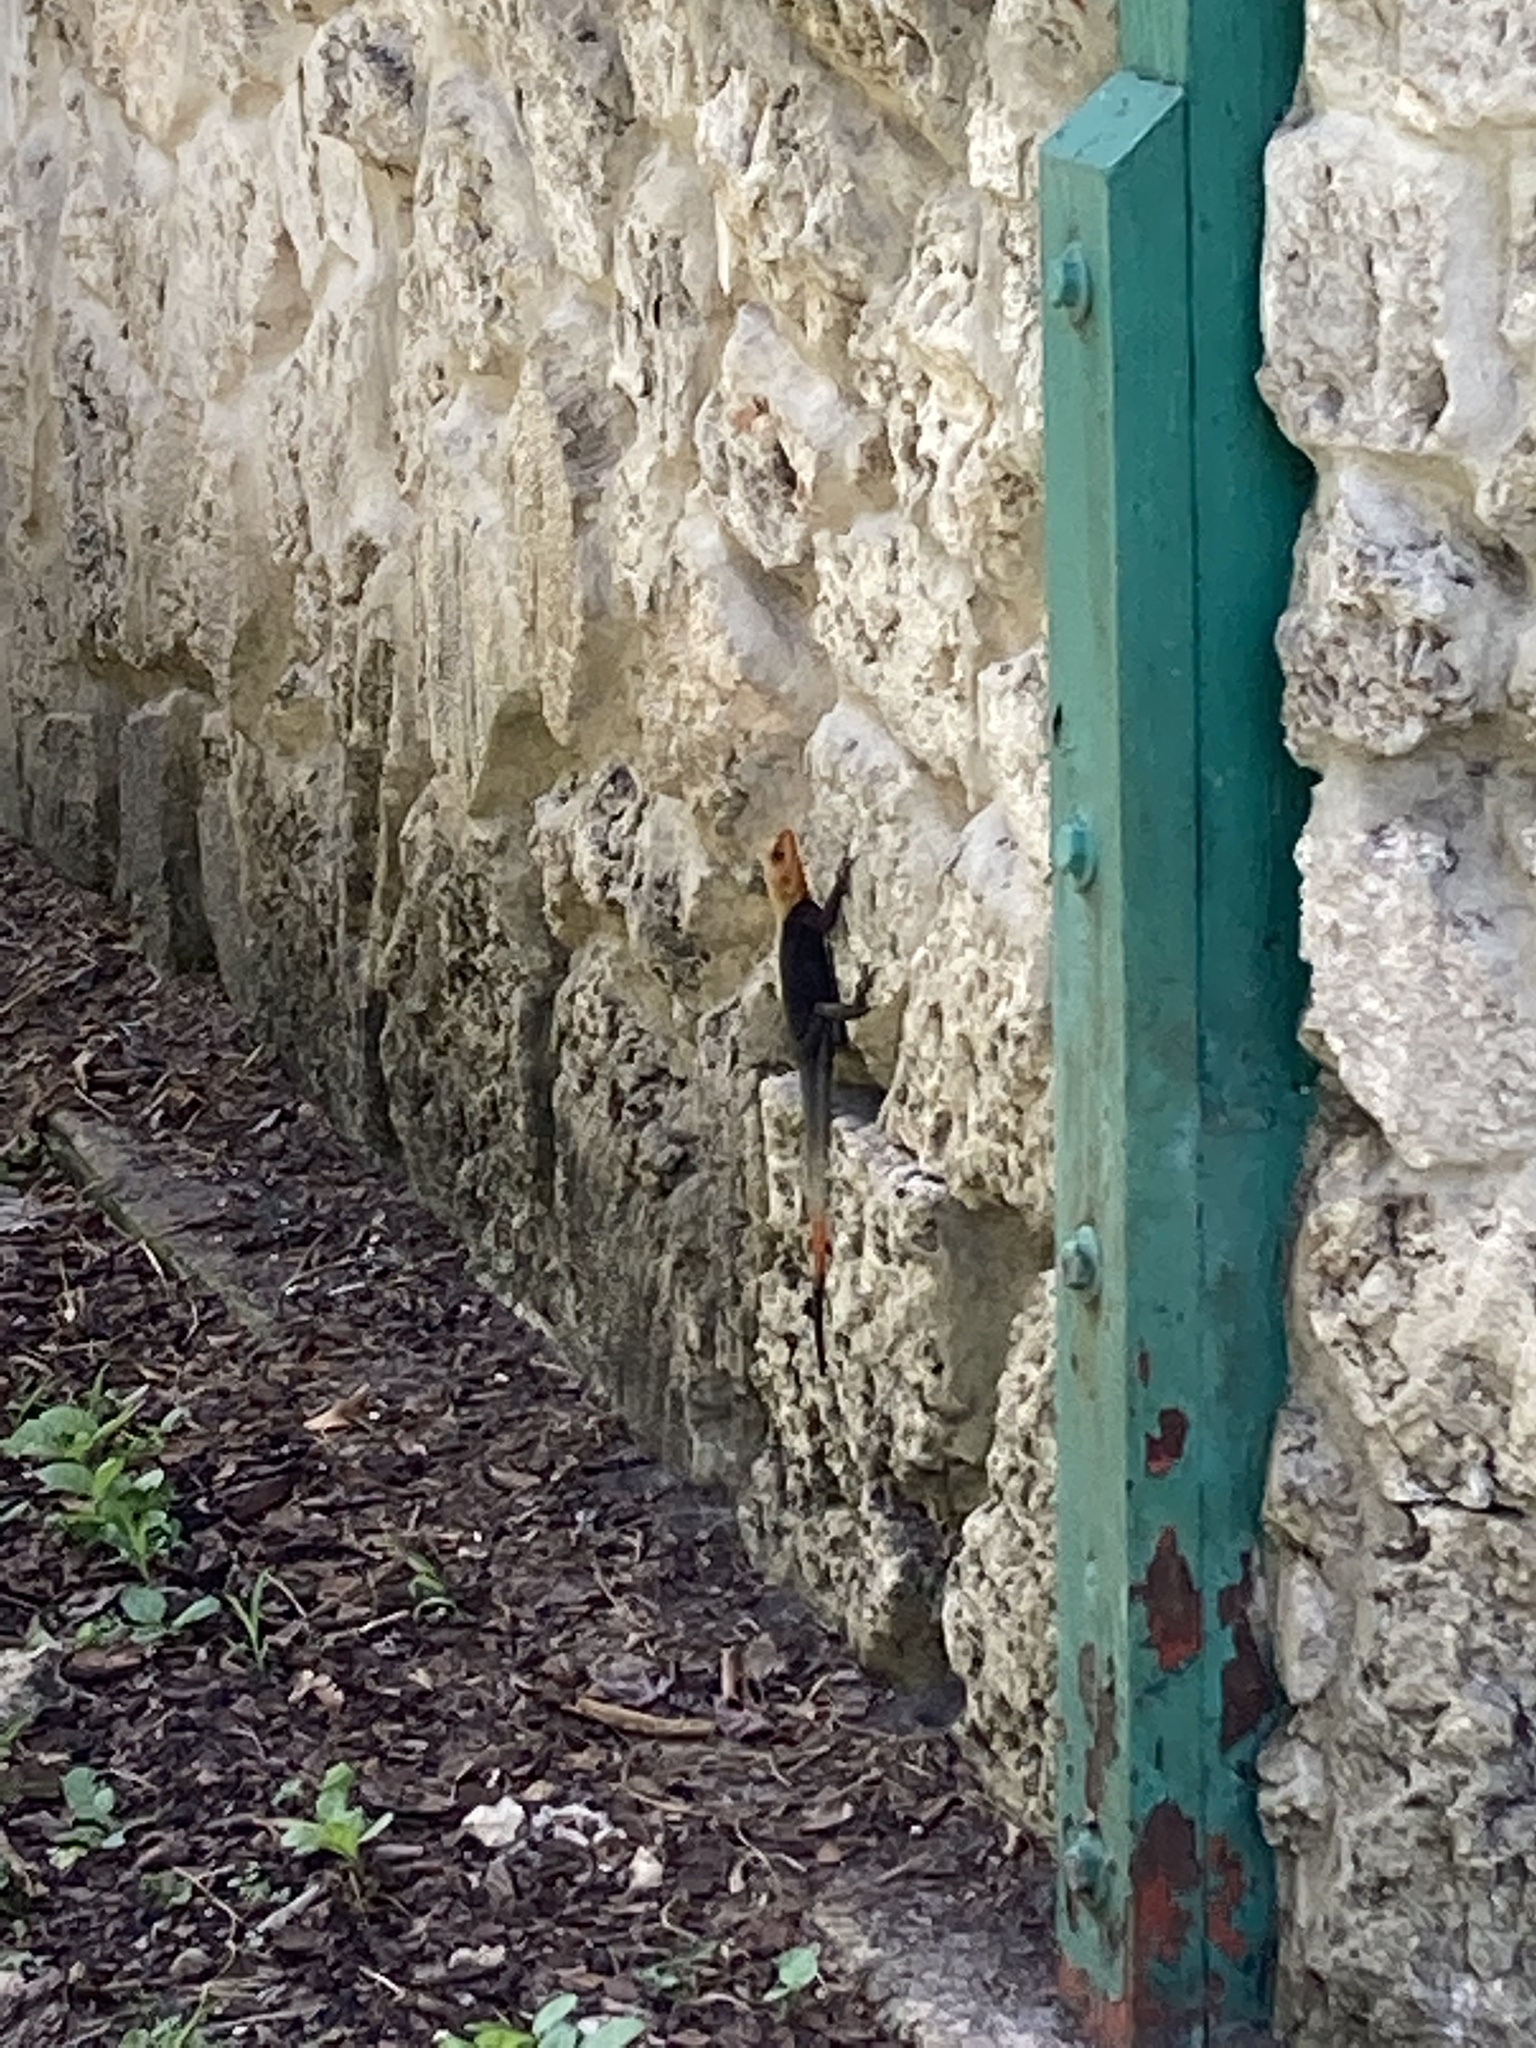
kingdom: Animalia
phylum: Chordata
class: Squamata
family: Agamidae
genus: Agama
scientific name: Agama picticauda
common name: Red-headed agama
